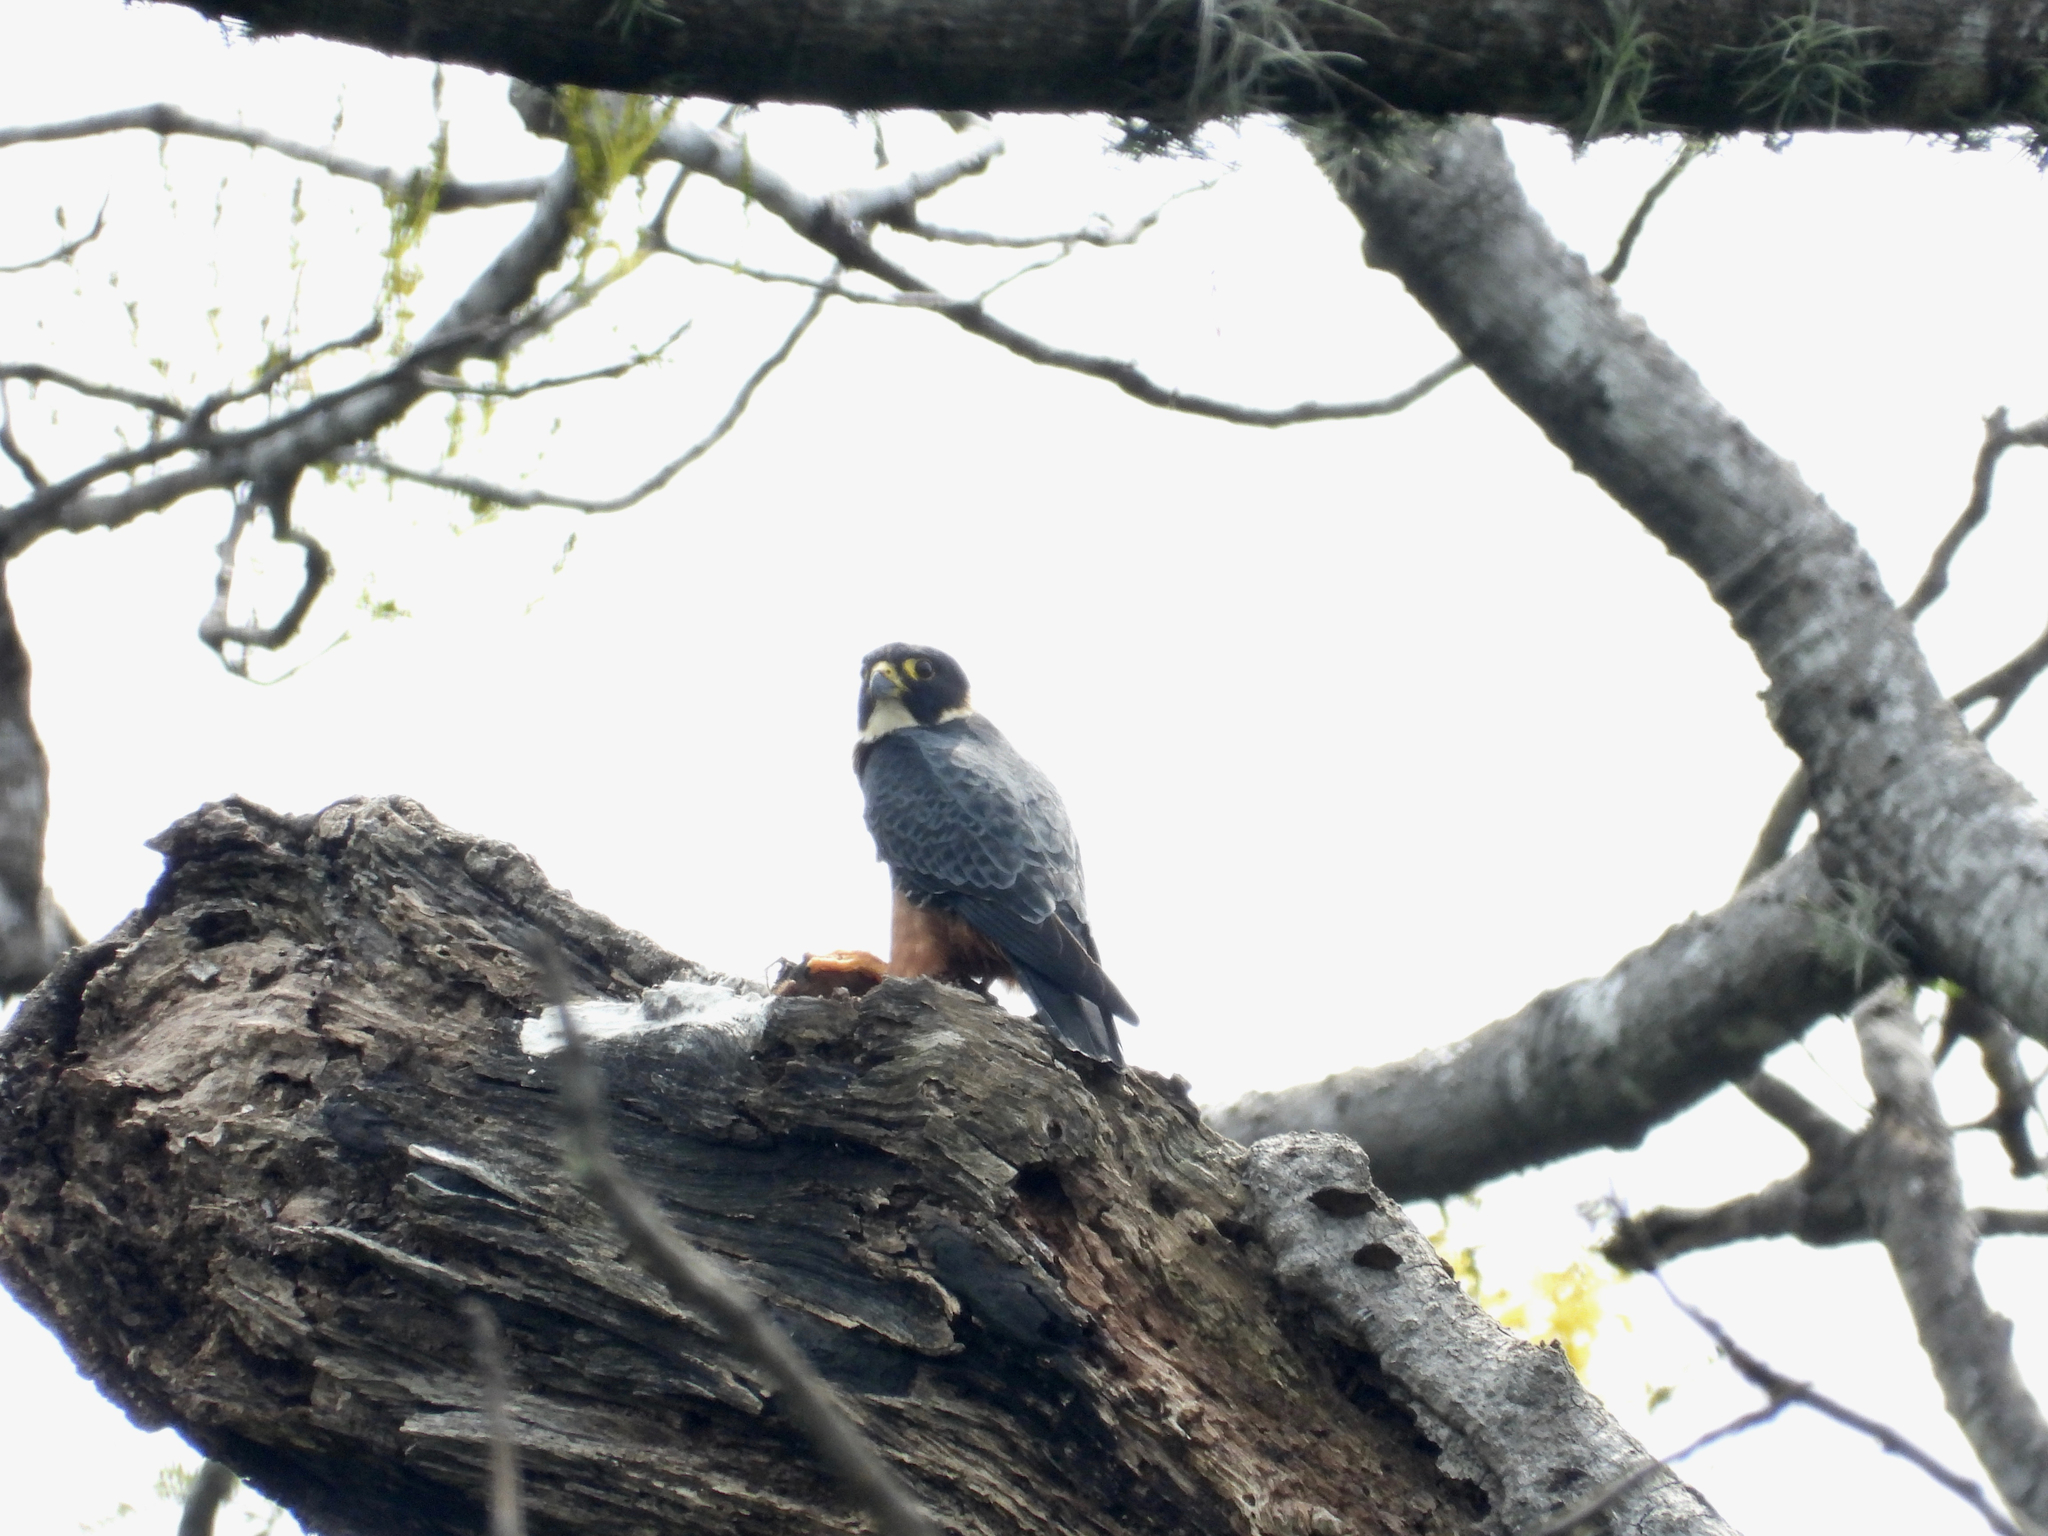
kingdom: Animalia
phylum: Chordata
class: Aves
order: Falconiformes
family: Falconidae
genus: Falco
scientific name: Falco rufigularis
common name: Bat falcon
